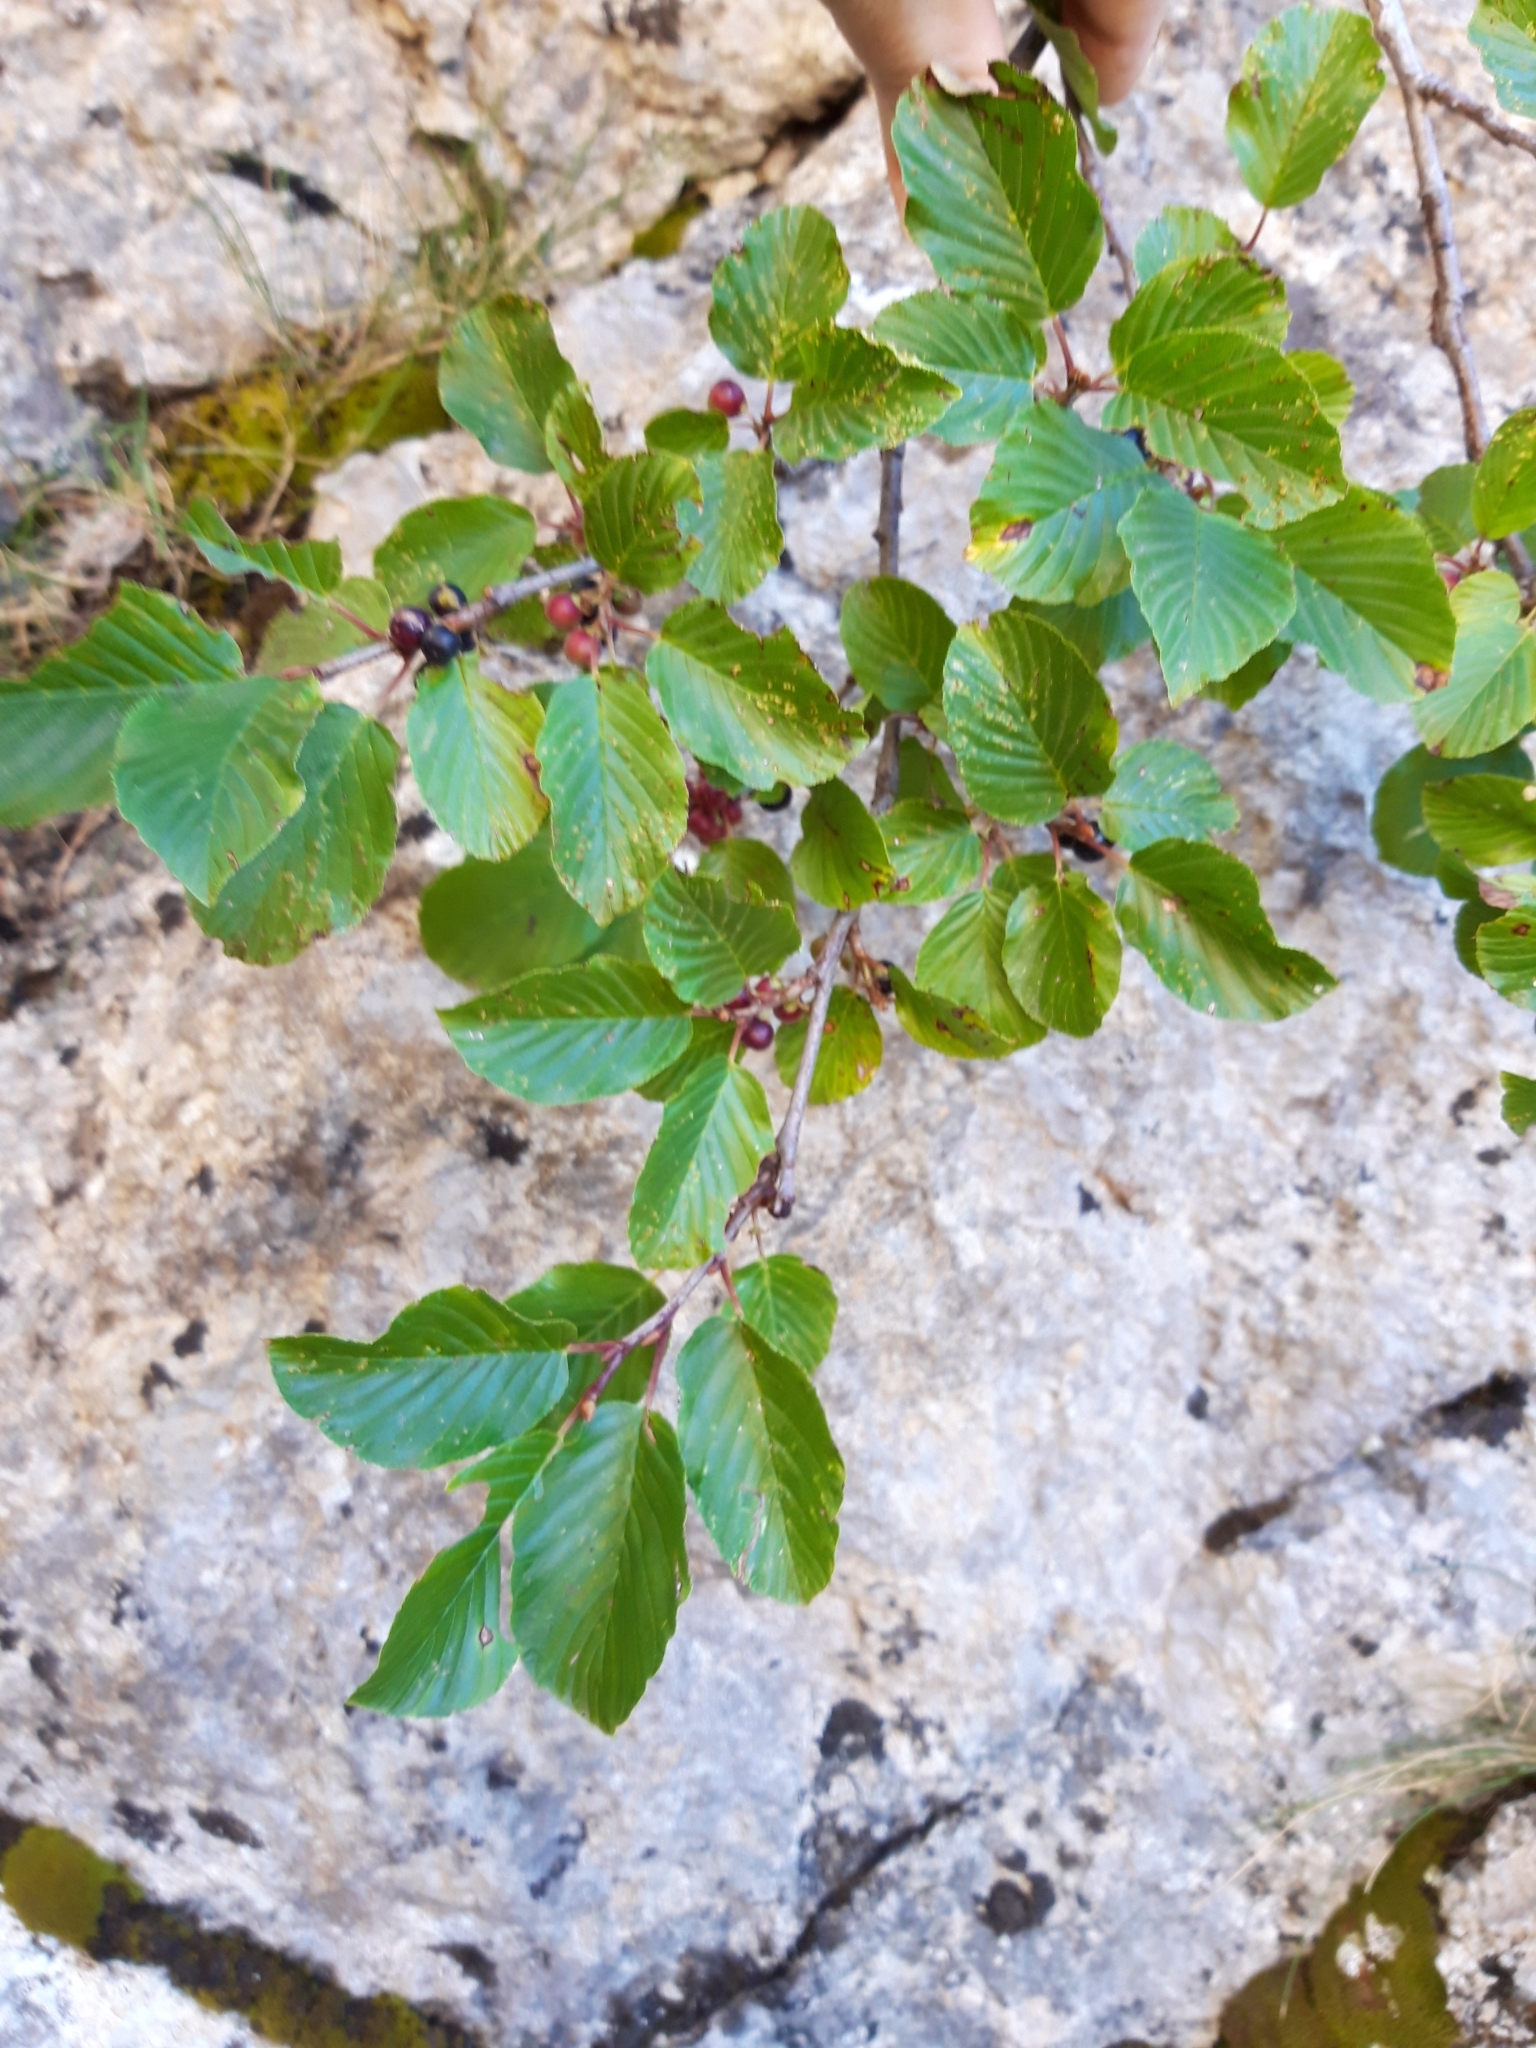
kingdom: Plantae
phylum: Tracheophyta
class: Magnoliopsida
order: Rosales
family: Rhamnaceae
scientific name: Rhamnaceae
